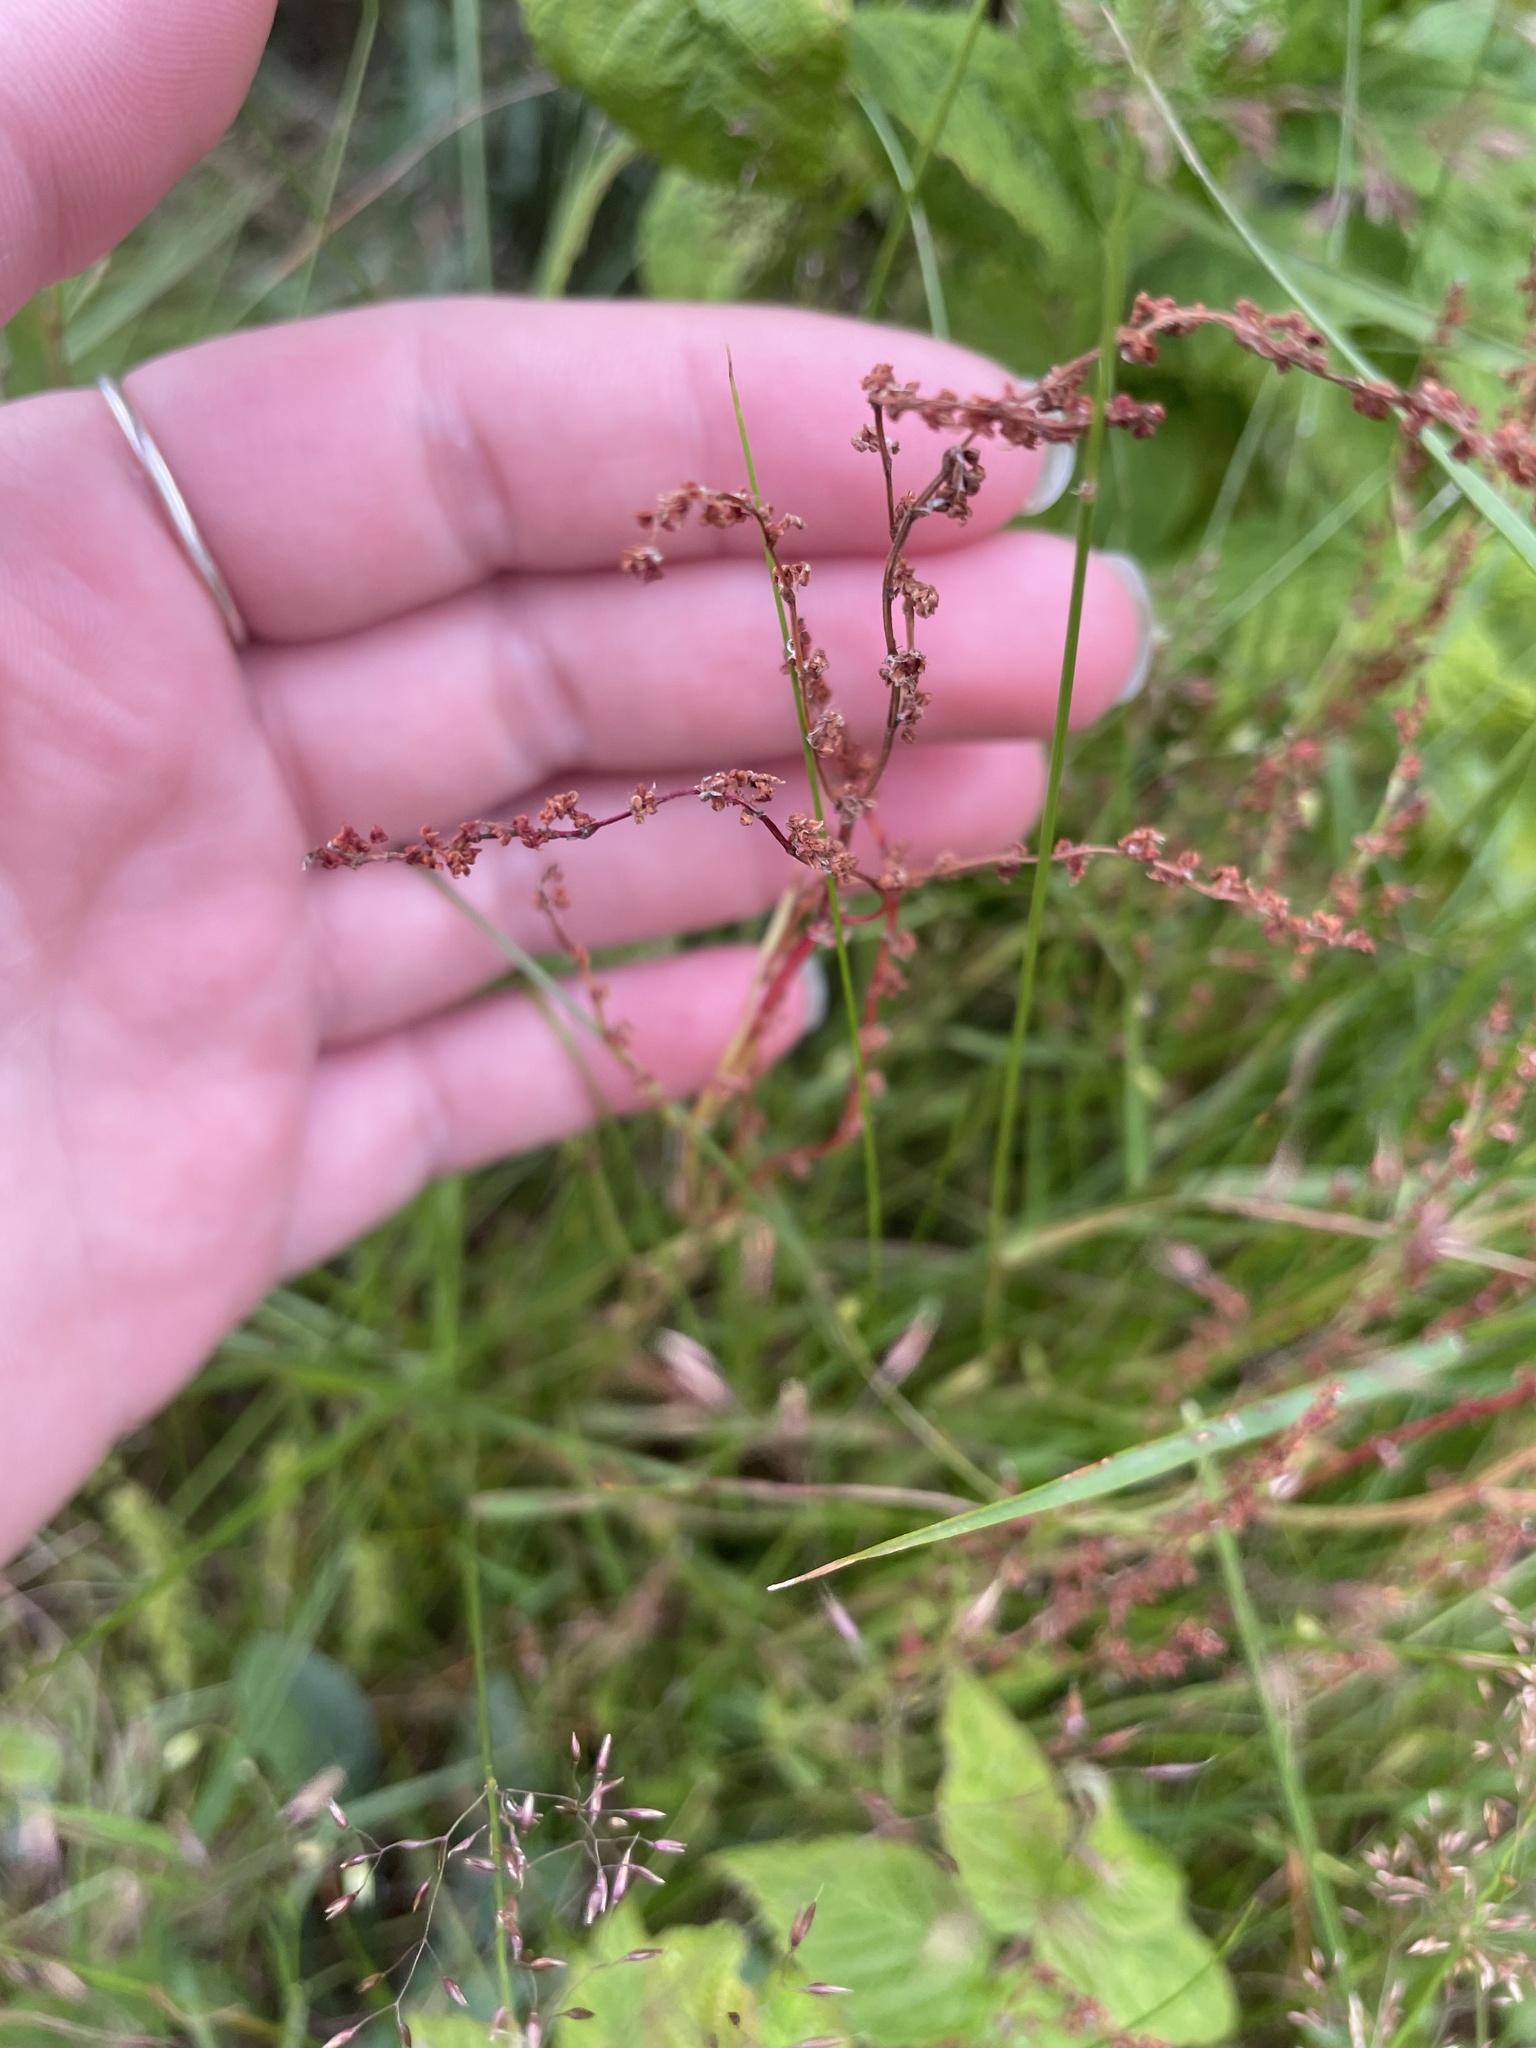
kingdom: Plantae
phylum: Tracheophyta
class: Magnoliopsida
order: Caryophyllales
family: Polygonaceae
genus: Rumex
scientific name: Rumex acetosella
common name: Common sheep sorrel
